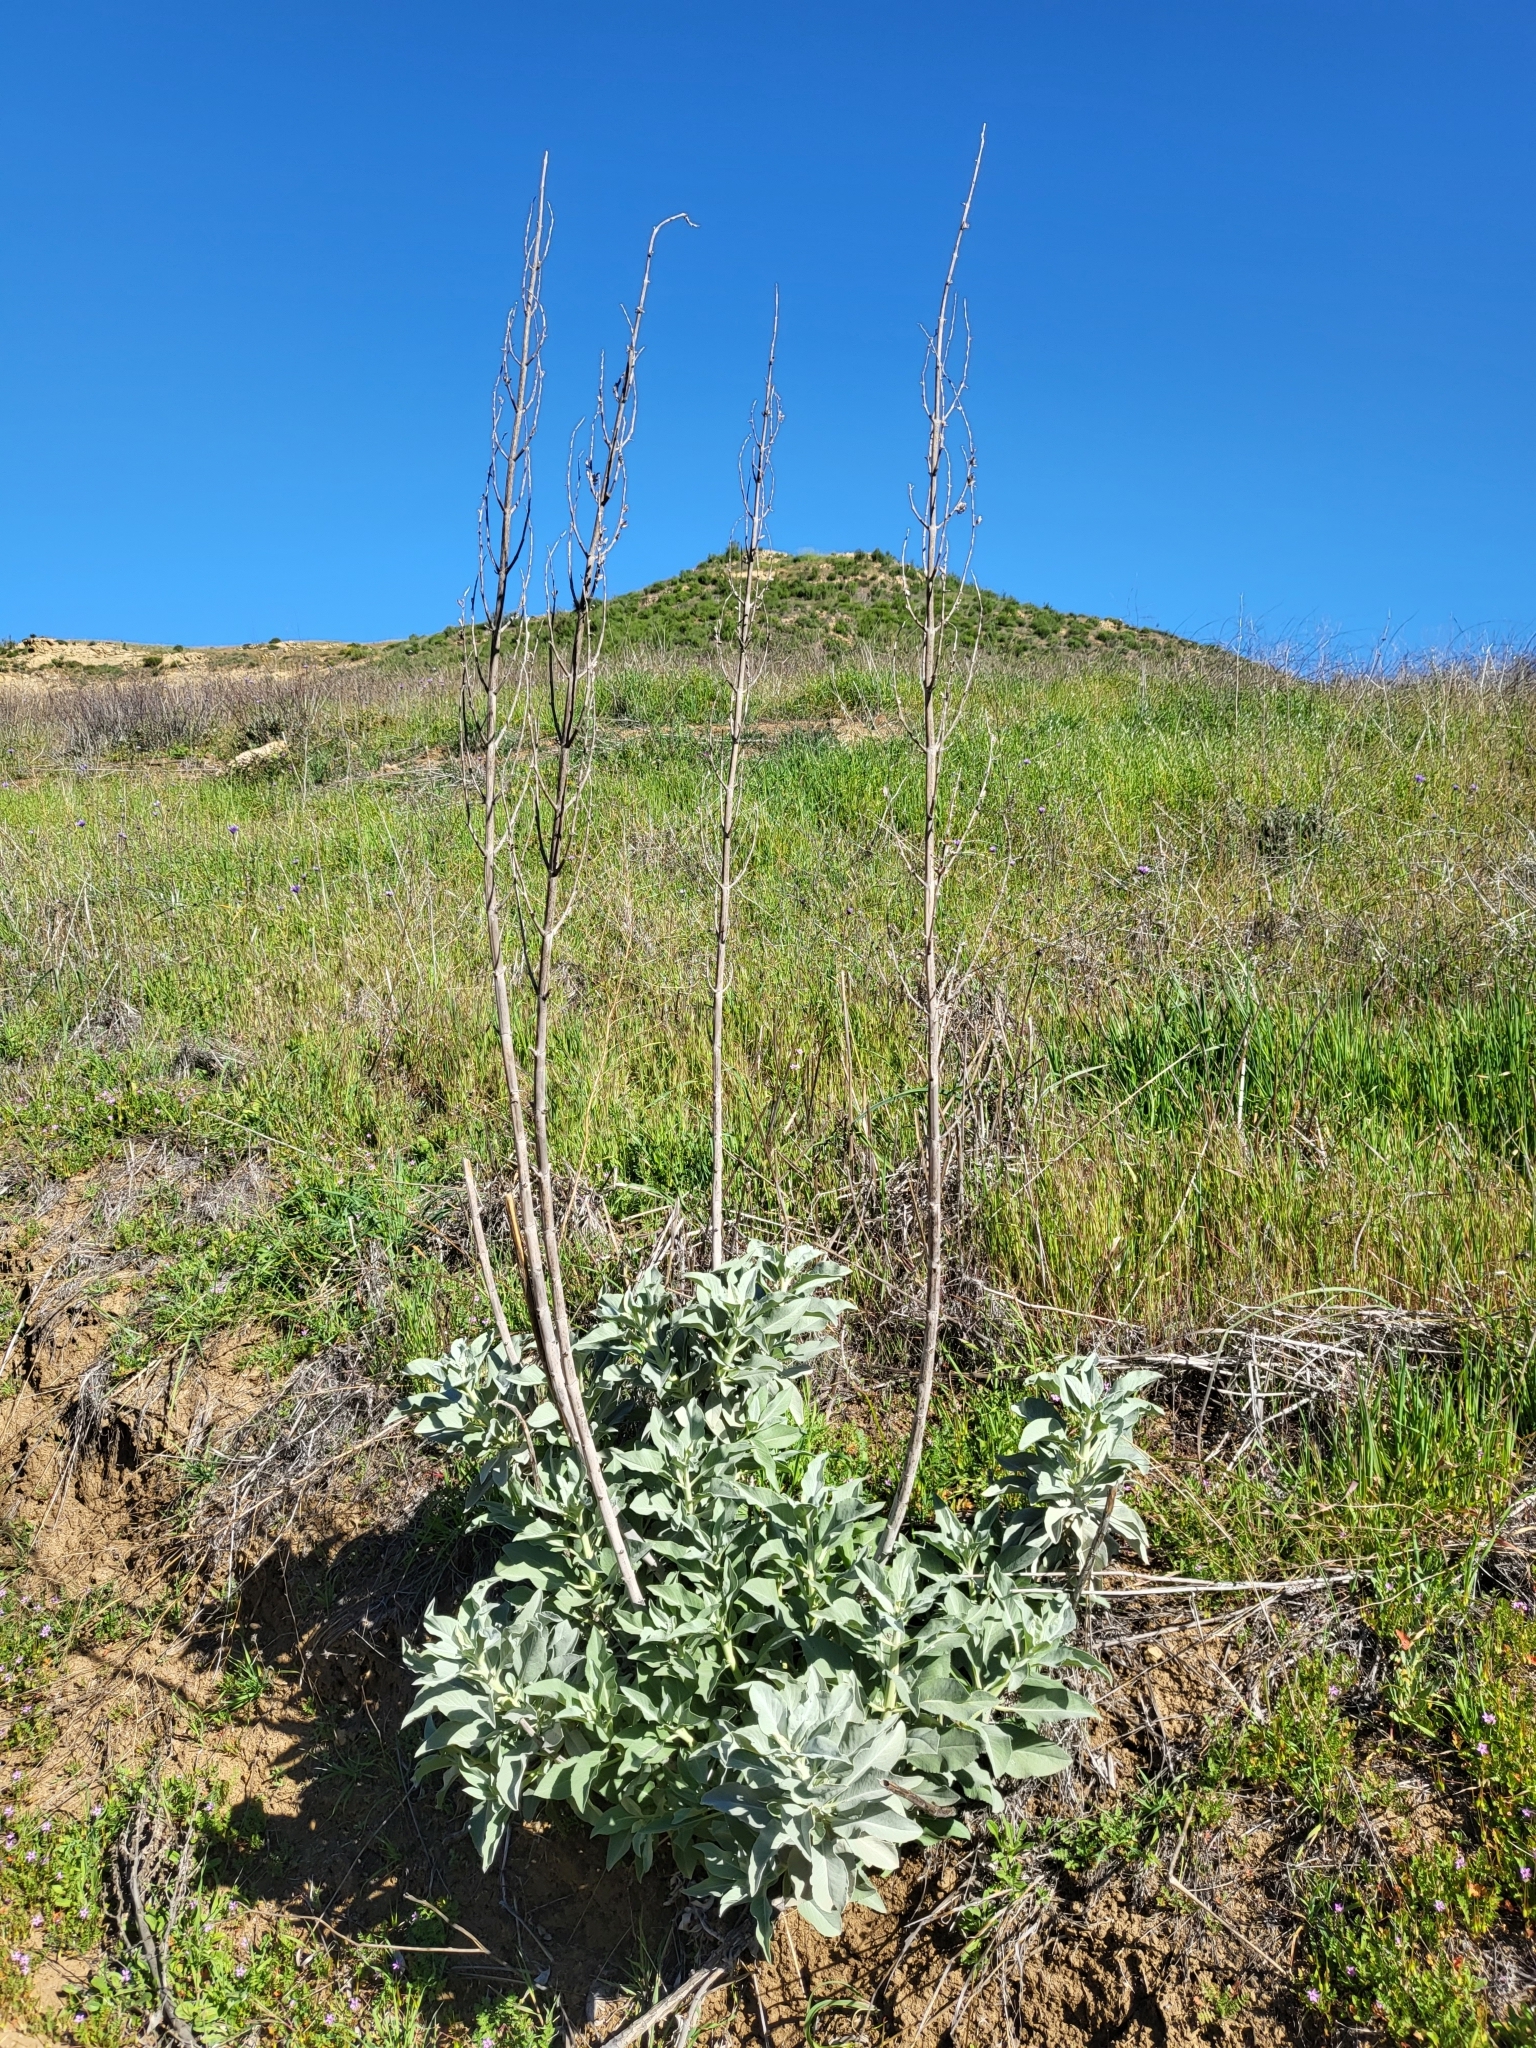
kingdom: Plantae
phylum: Tracheophyta
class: Magnoliopsida
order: Lamiales
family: Lamiaceae
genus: Salvia
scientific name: Salvia apiana
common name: White sage
